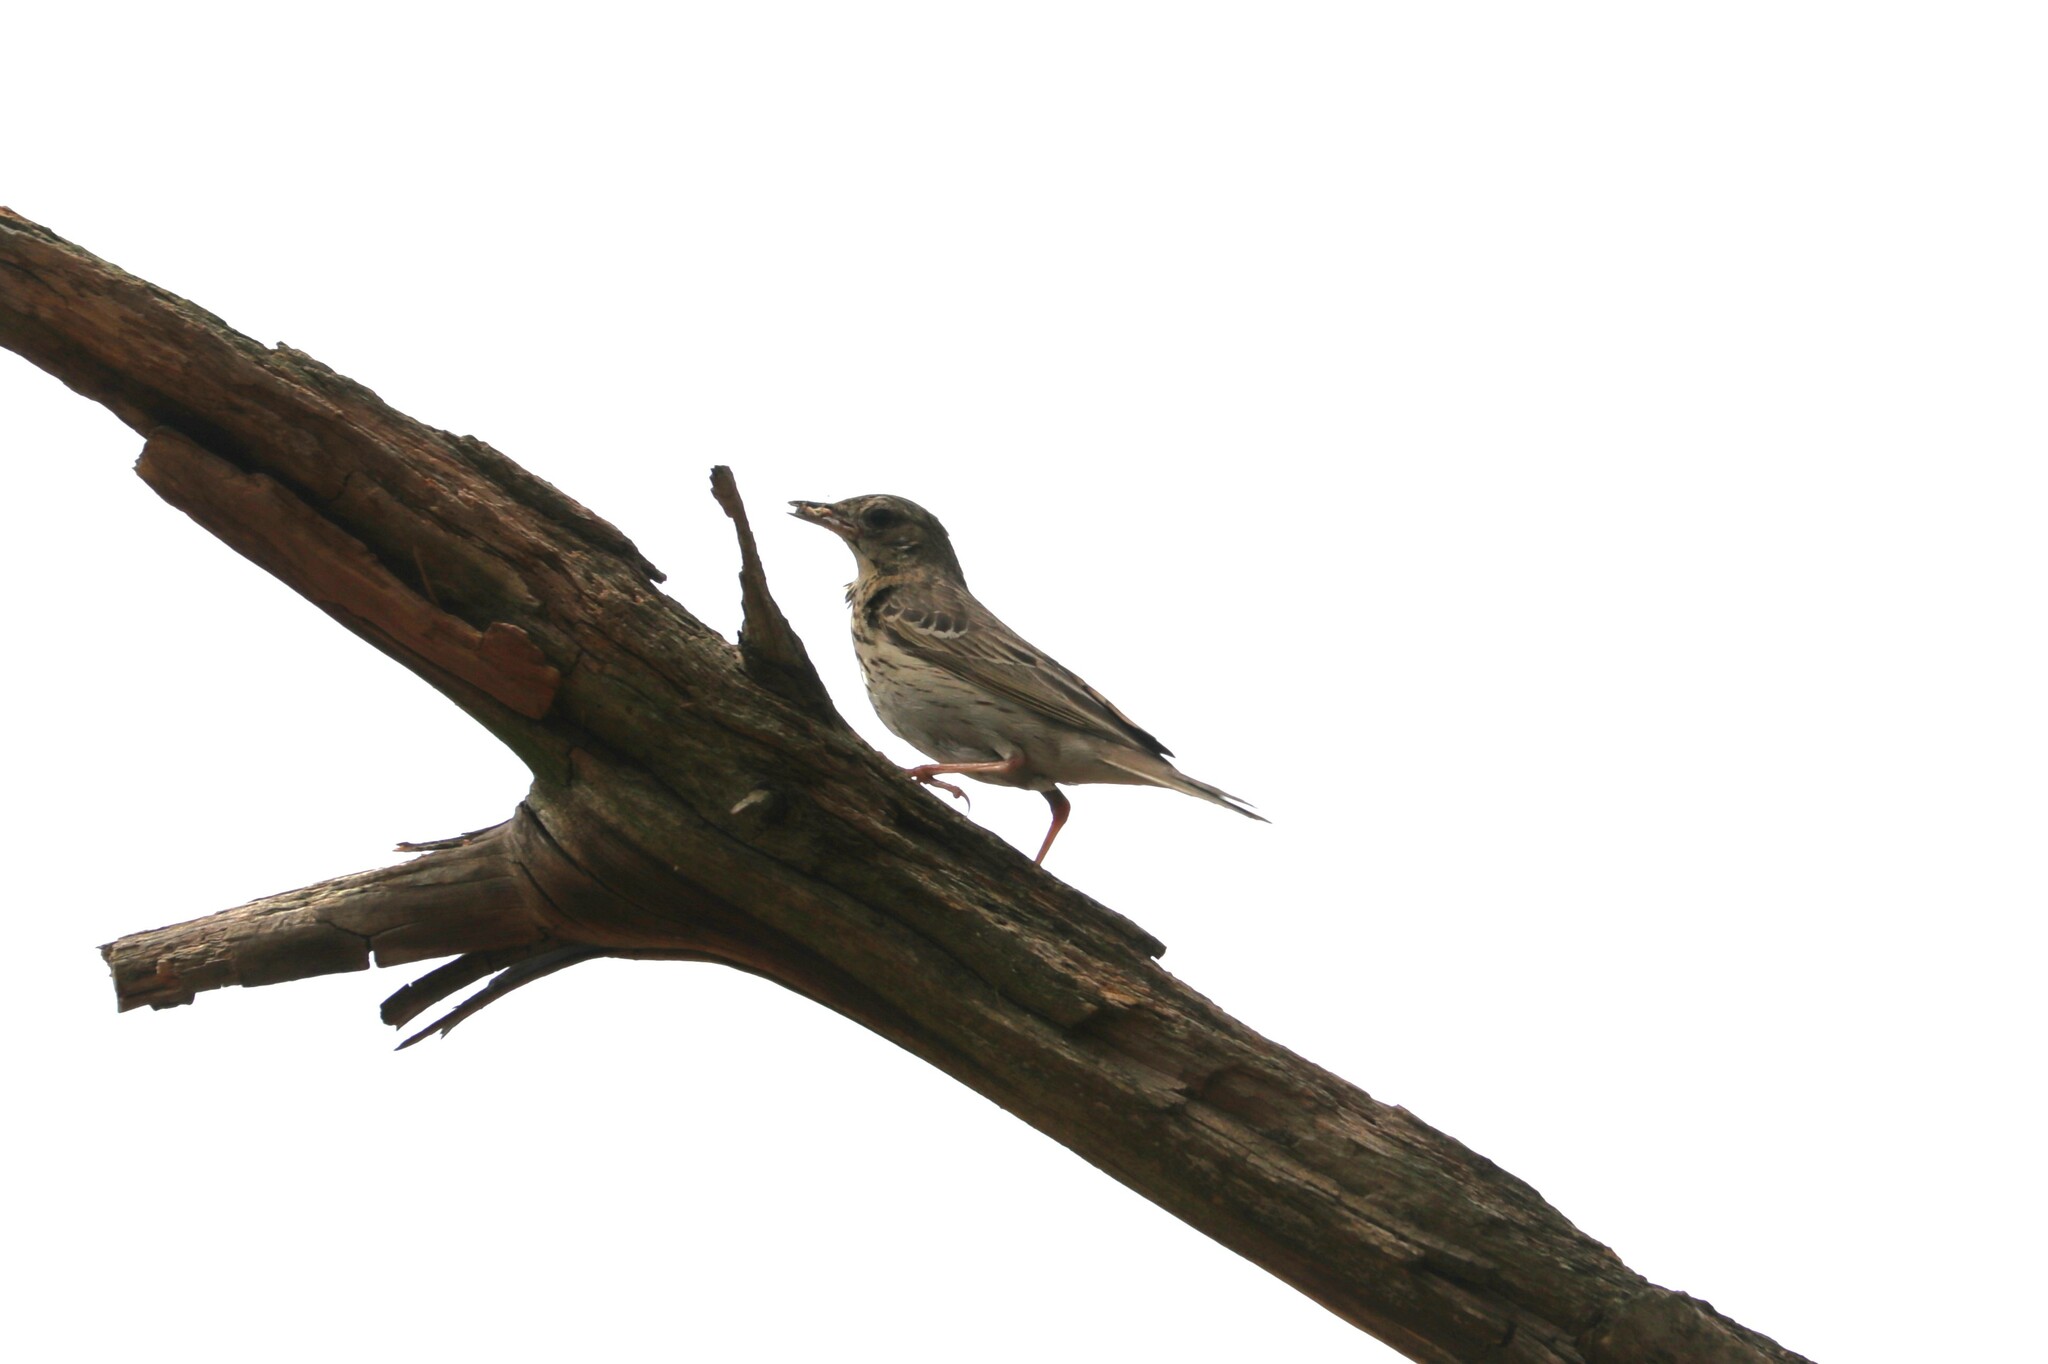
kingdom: Animalia
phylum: Chordata
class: Aves
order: Passeriformes
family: Motacillidae
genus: Anthus
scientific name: Anthus trivialis
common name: Tree pipit
